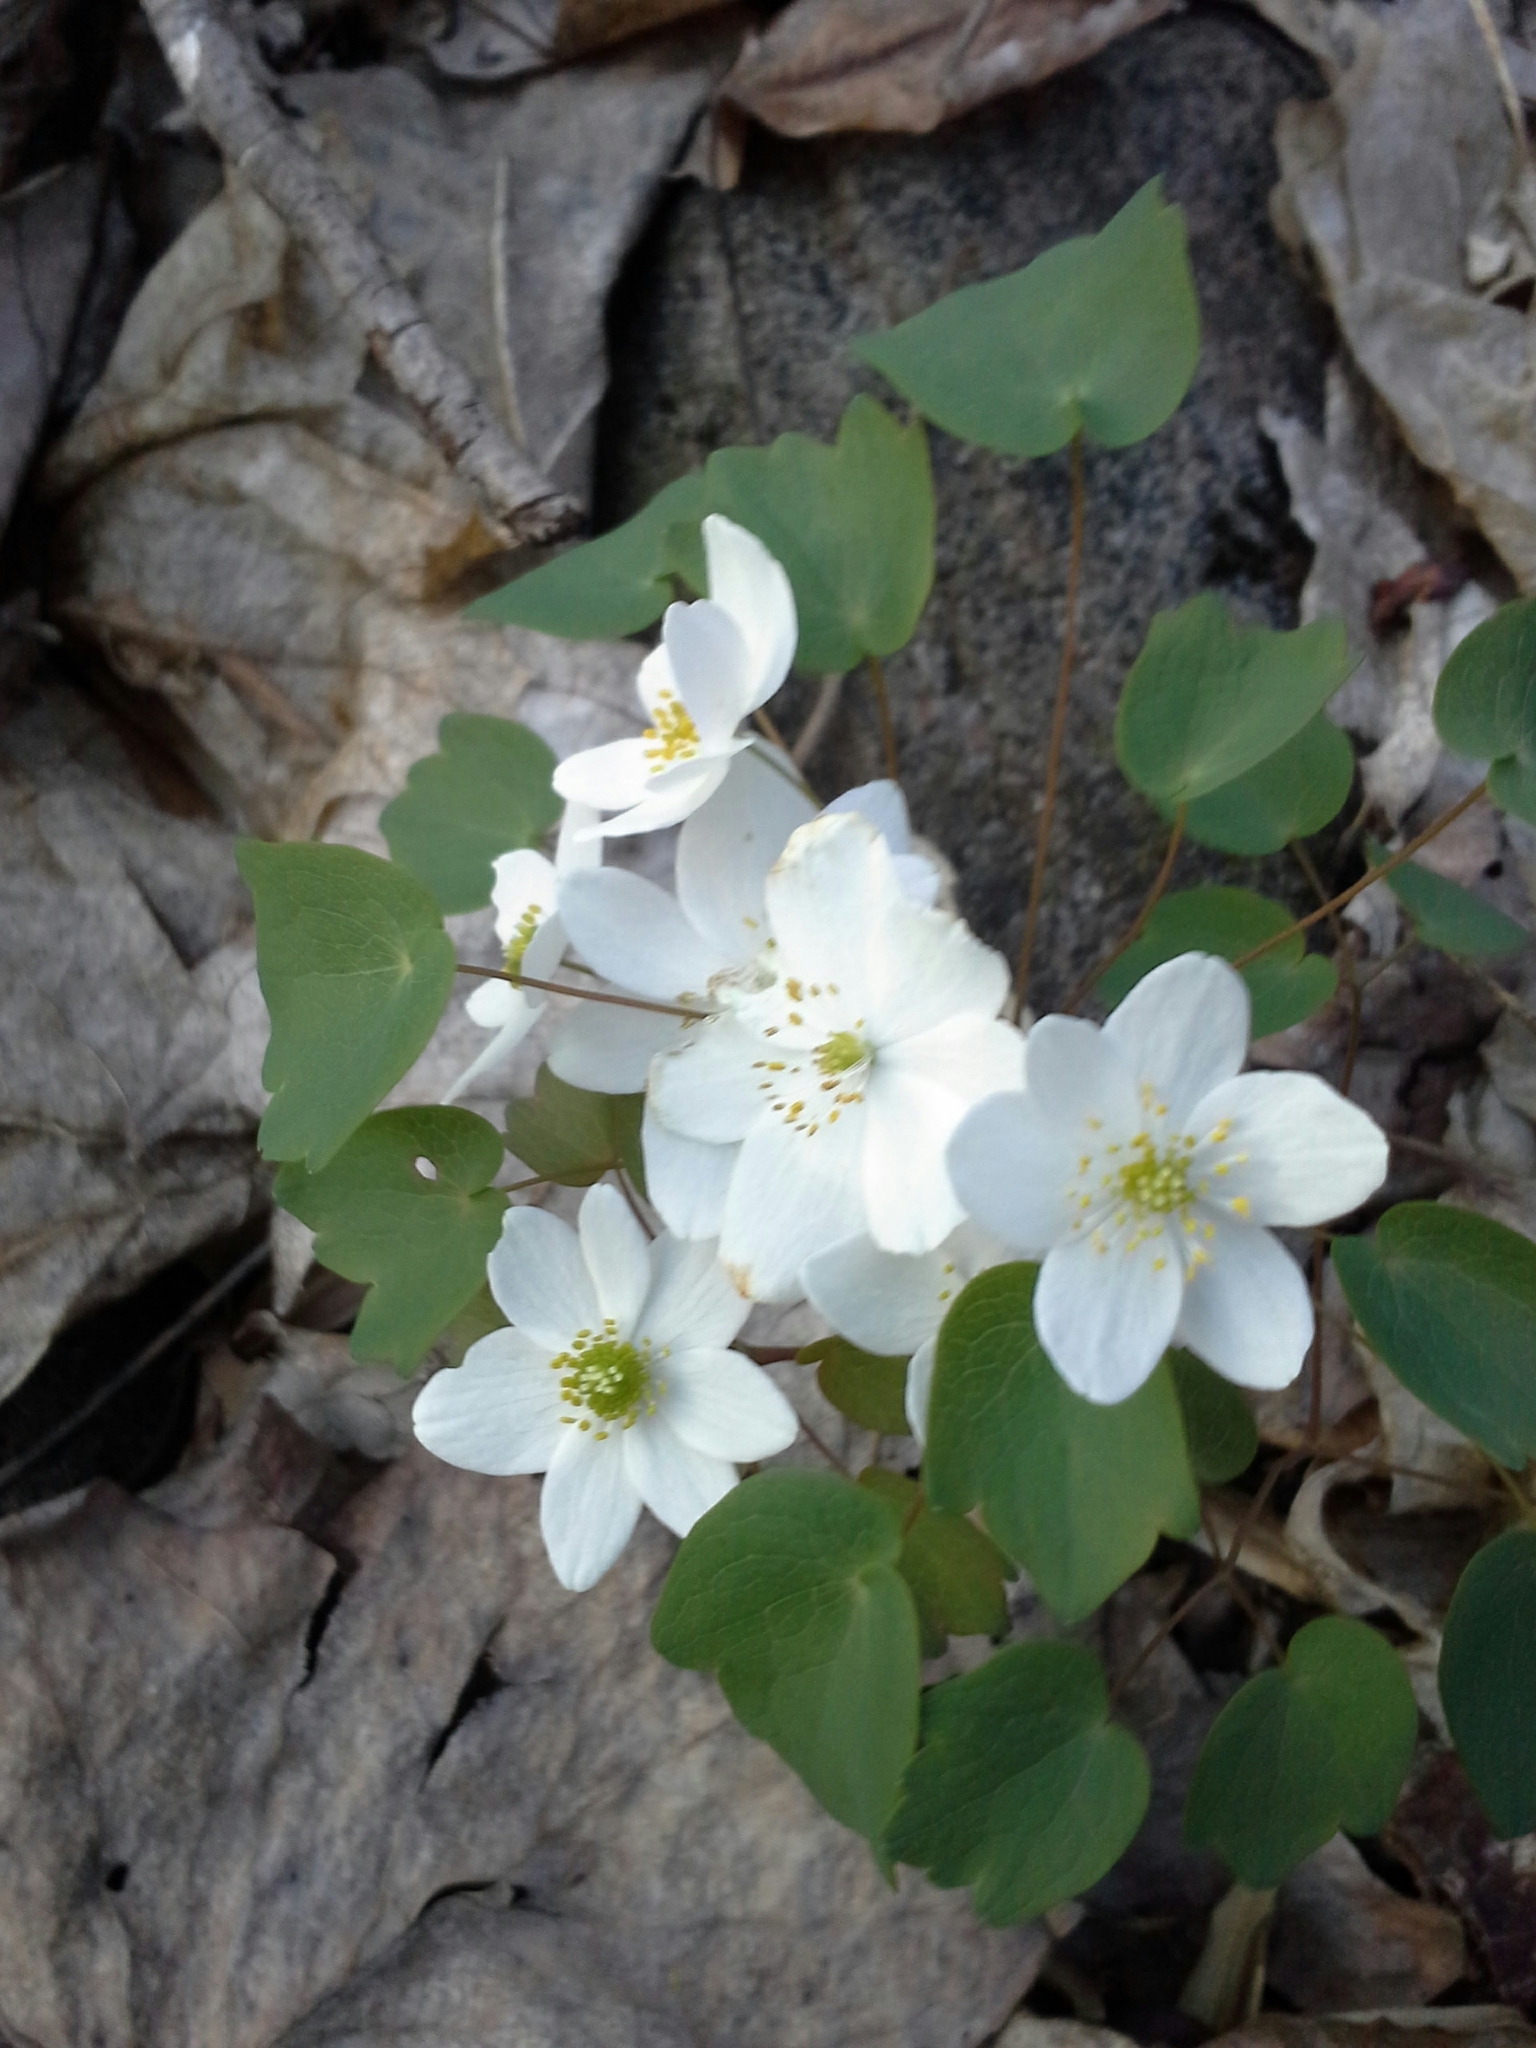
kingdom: Plantae
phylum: Tracheophyta
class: Magnoliopsida
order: Ranunculales
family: Ranunculaceae
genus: Thalictrum
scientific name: Thalictrum thalictroides
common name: Rue-anemone
